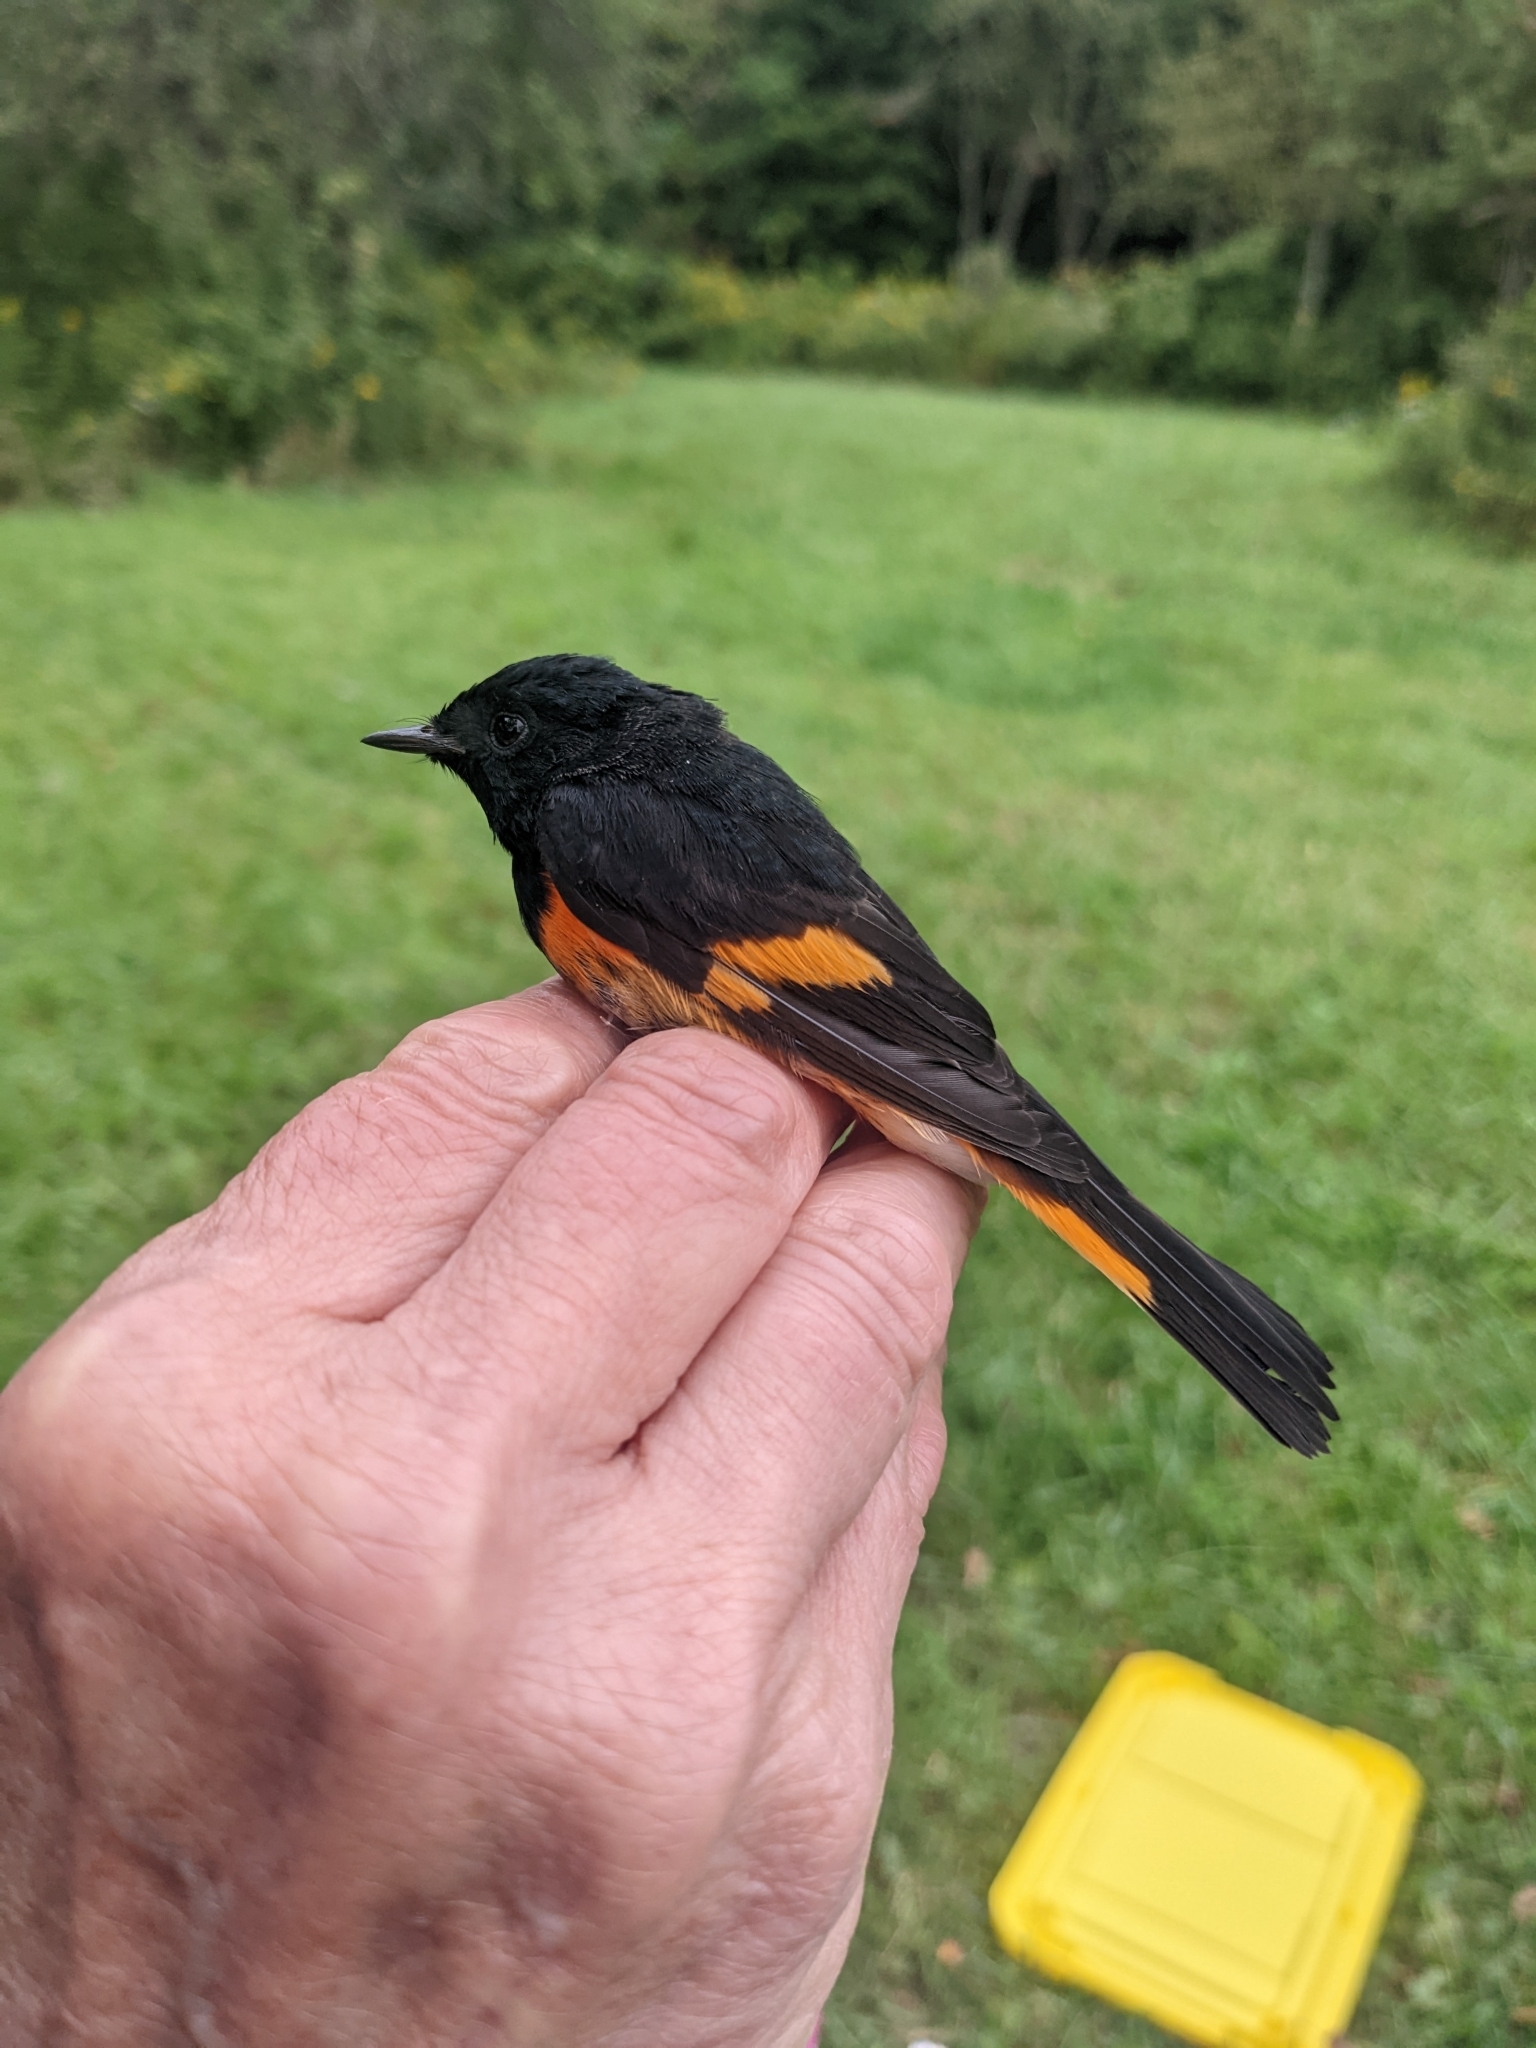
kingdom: Animalia
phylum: Chordata
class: Aves
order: Passeriformes
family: Parulidae
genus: Setophaga
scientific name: Setophaga ruticilla
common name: American redstart
